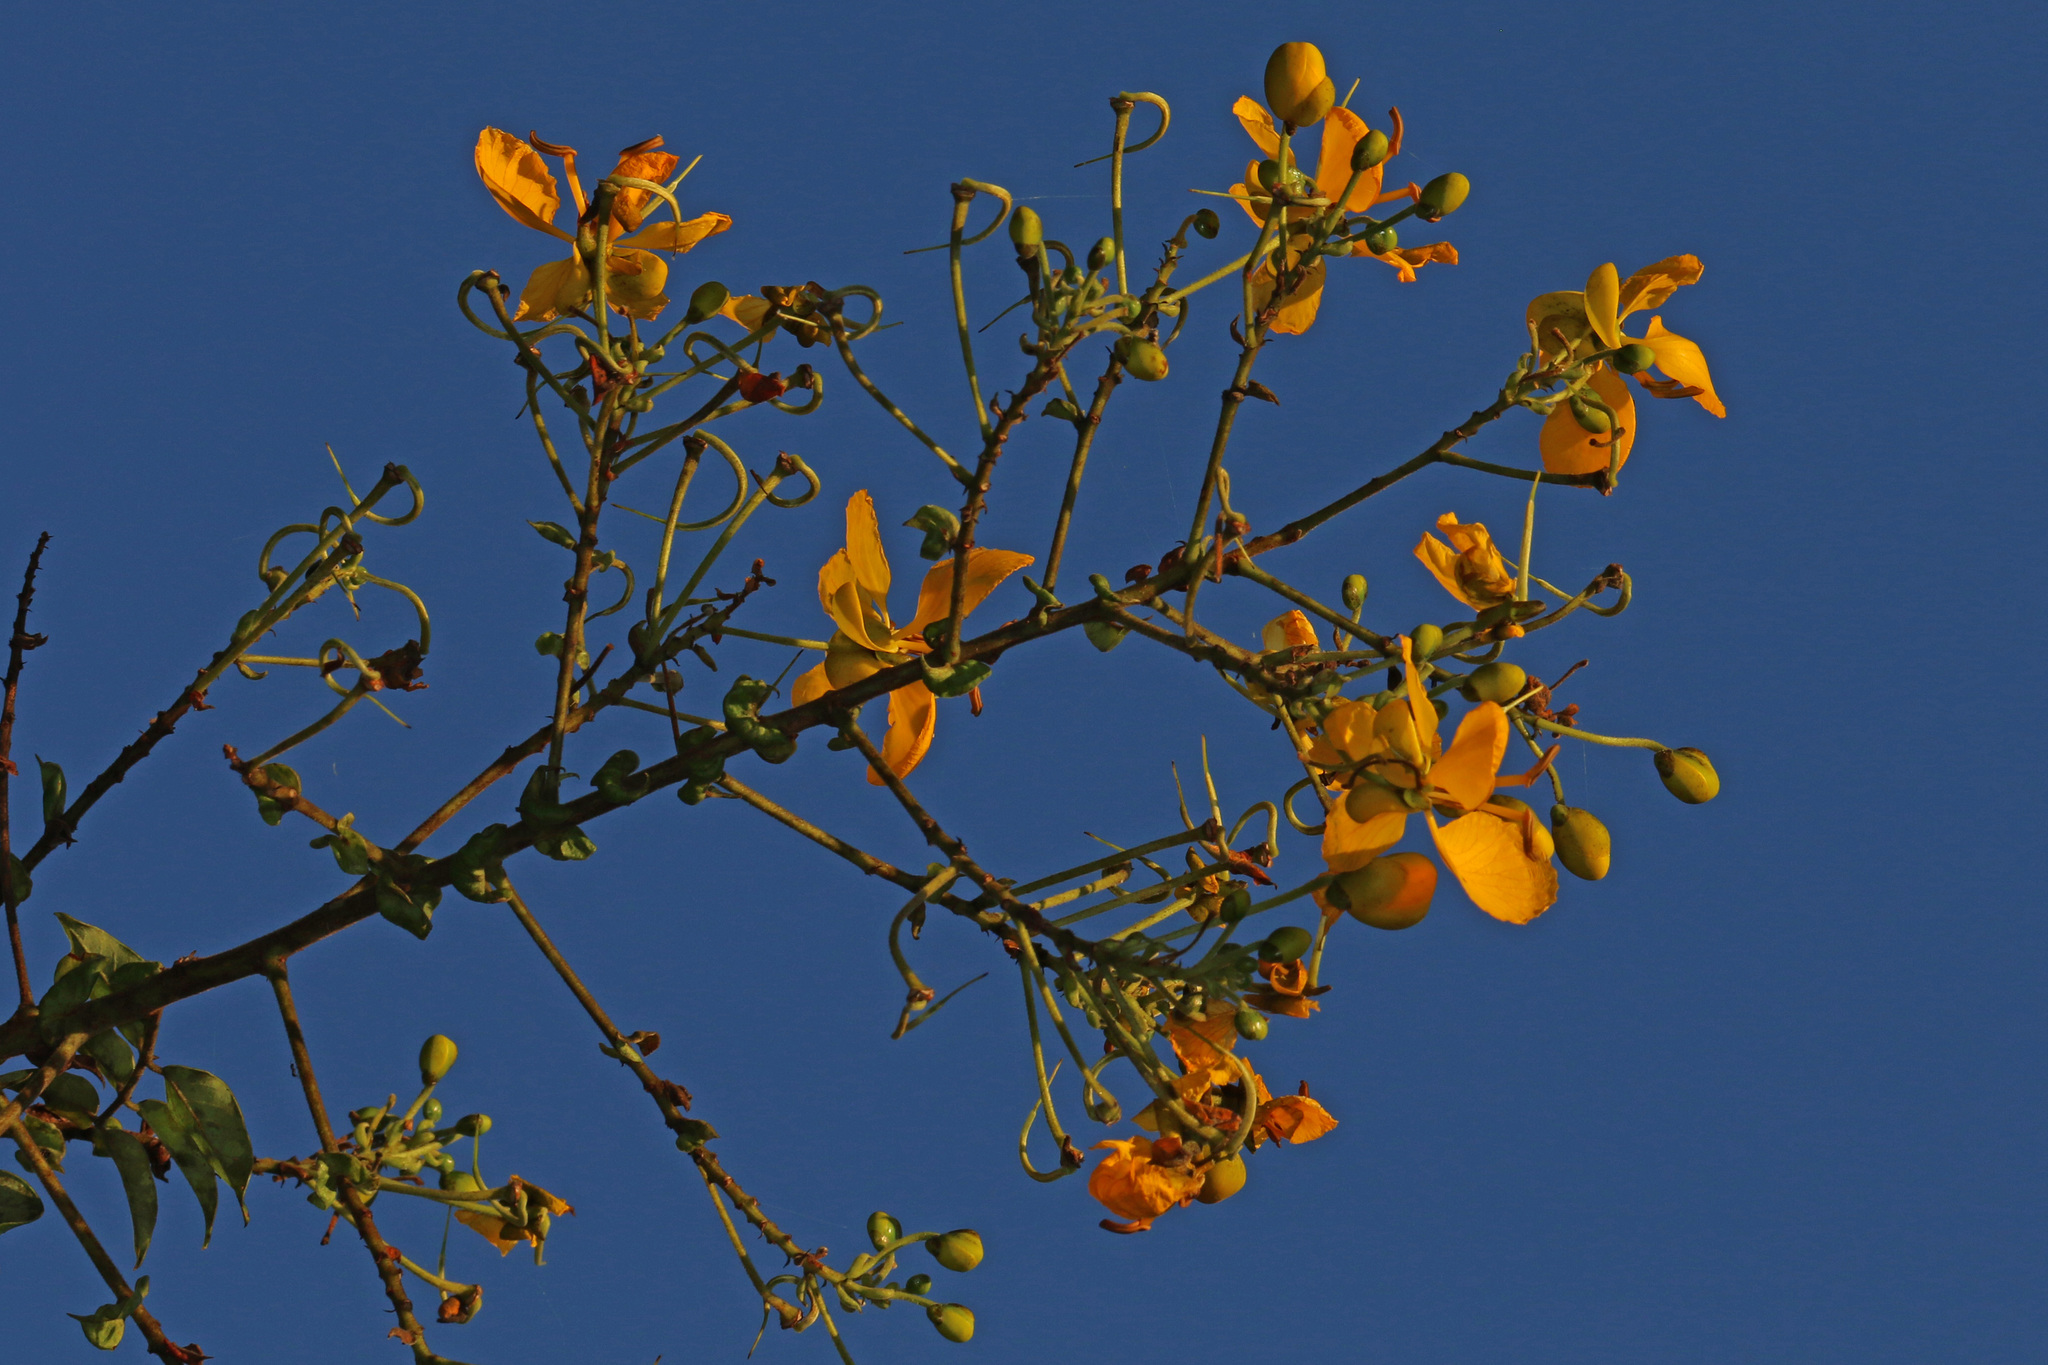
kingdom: Plantae
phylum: Tracheophyta
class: Magnoliopsida
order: Fabales
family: Fabaceae
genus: Senna
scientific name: Senna petersiana
